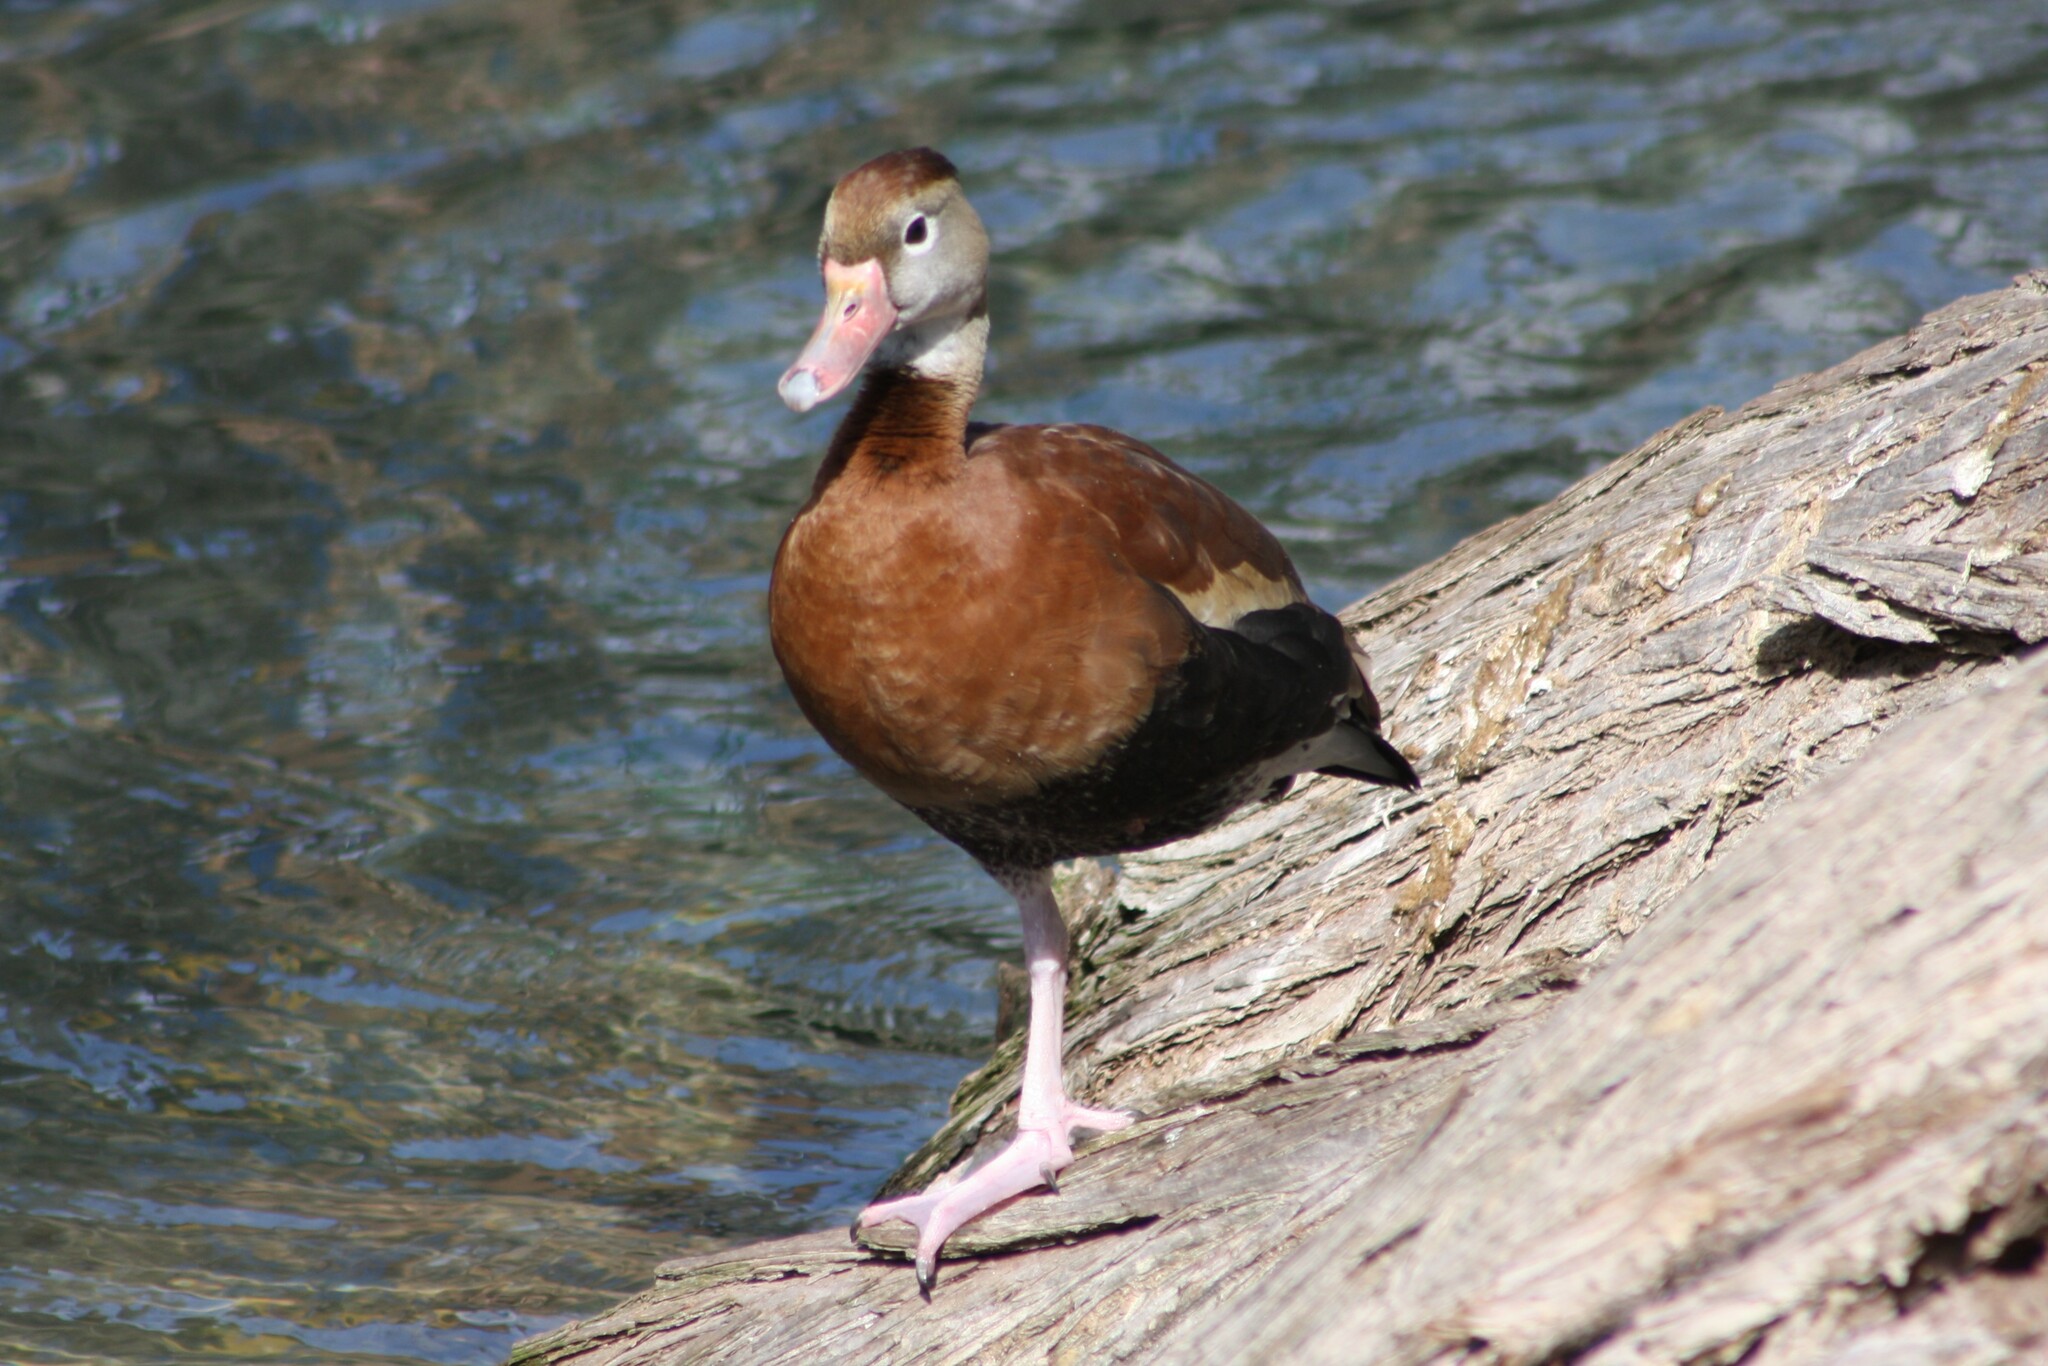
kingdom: Animalia
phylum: Chordata
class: Aves
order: Anseriformes
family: Anatidae
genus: Dendrocygna
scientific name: Dendrocygna autumnalis
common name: Black-bellied whistling duck
